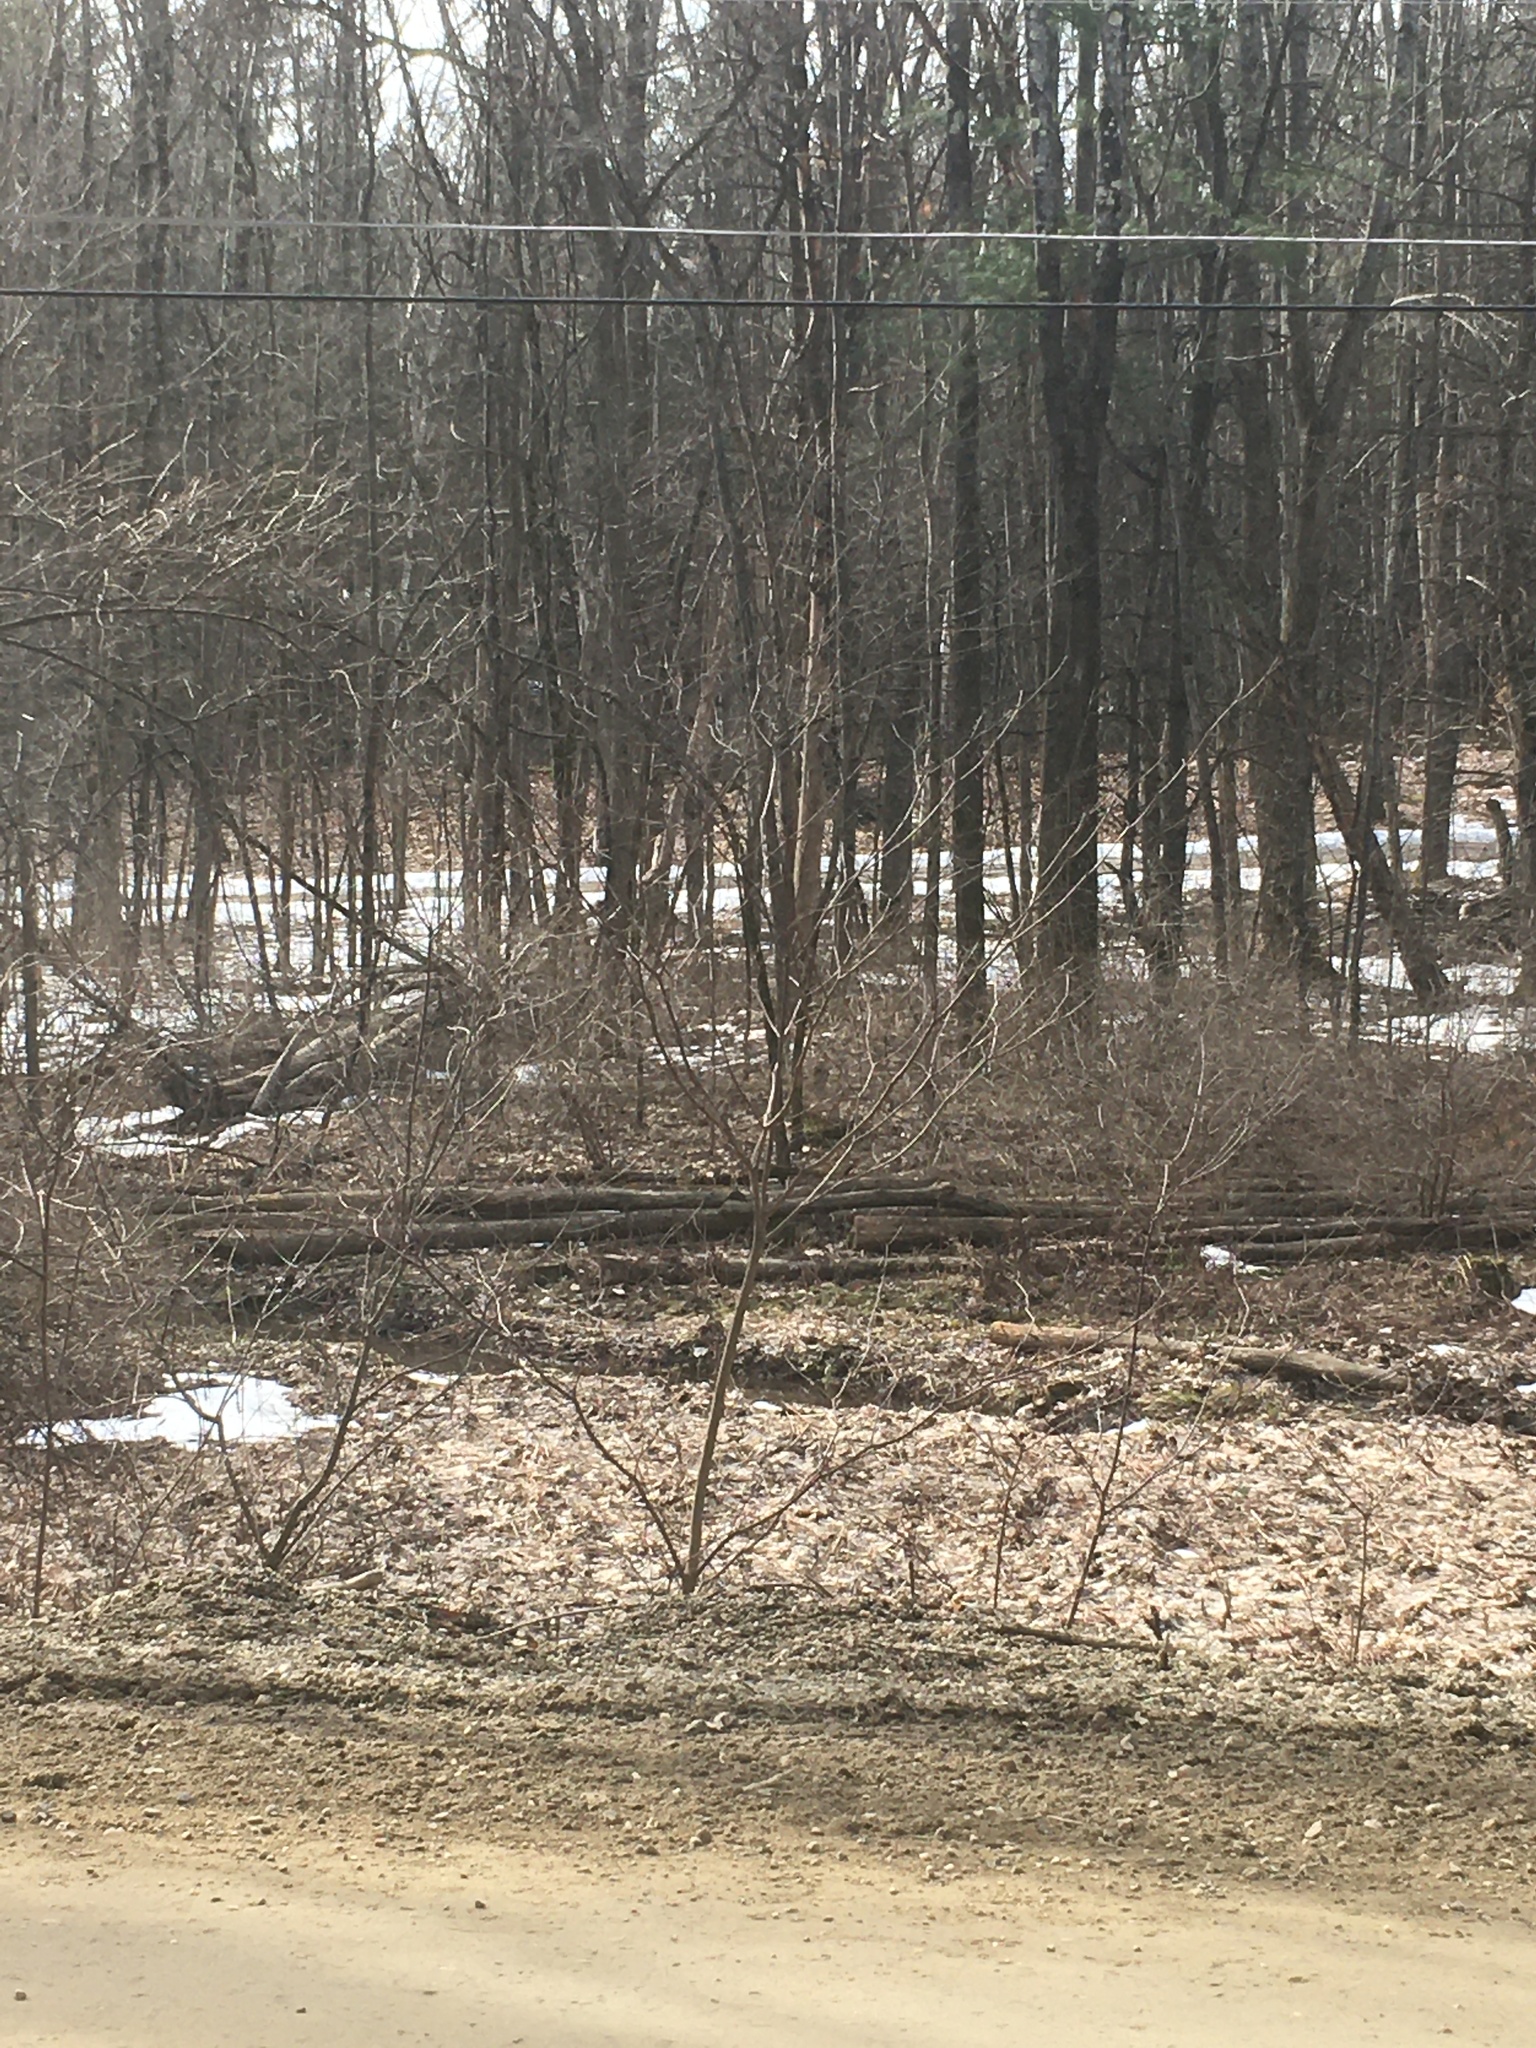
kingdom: Plantae
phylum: Tracheophyta
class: Magnoliopsida
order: Cornales
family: Cornaceae
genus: Cornus
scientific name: Cornus alternifolia
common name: Pagoda dogwood
